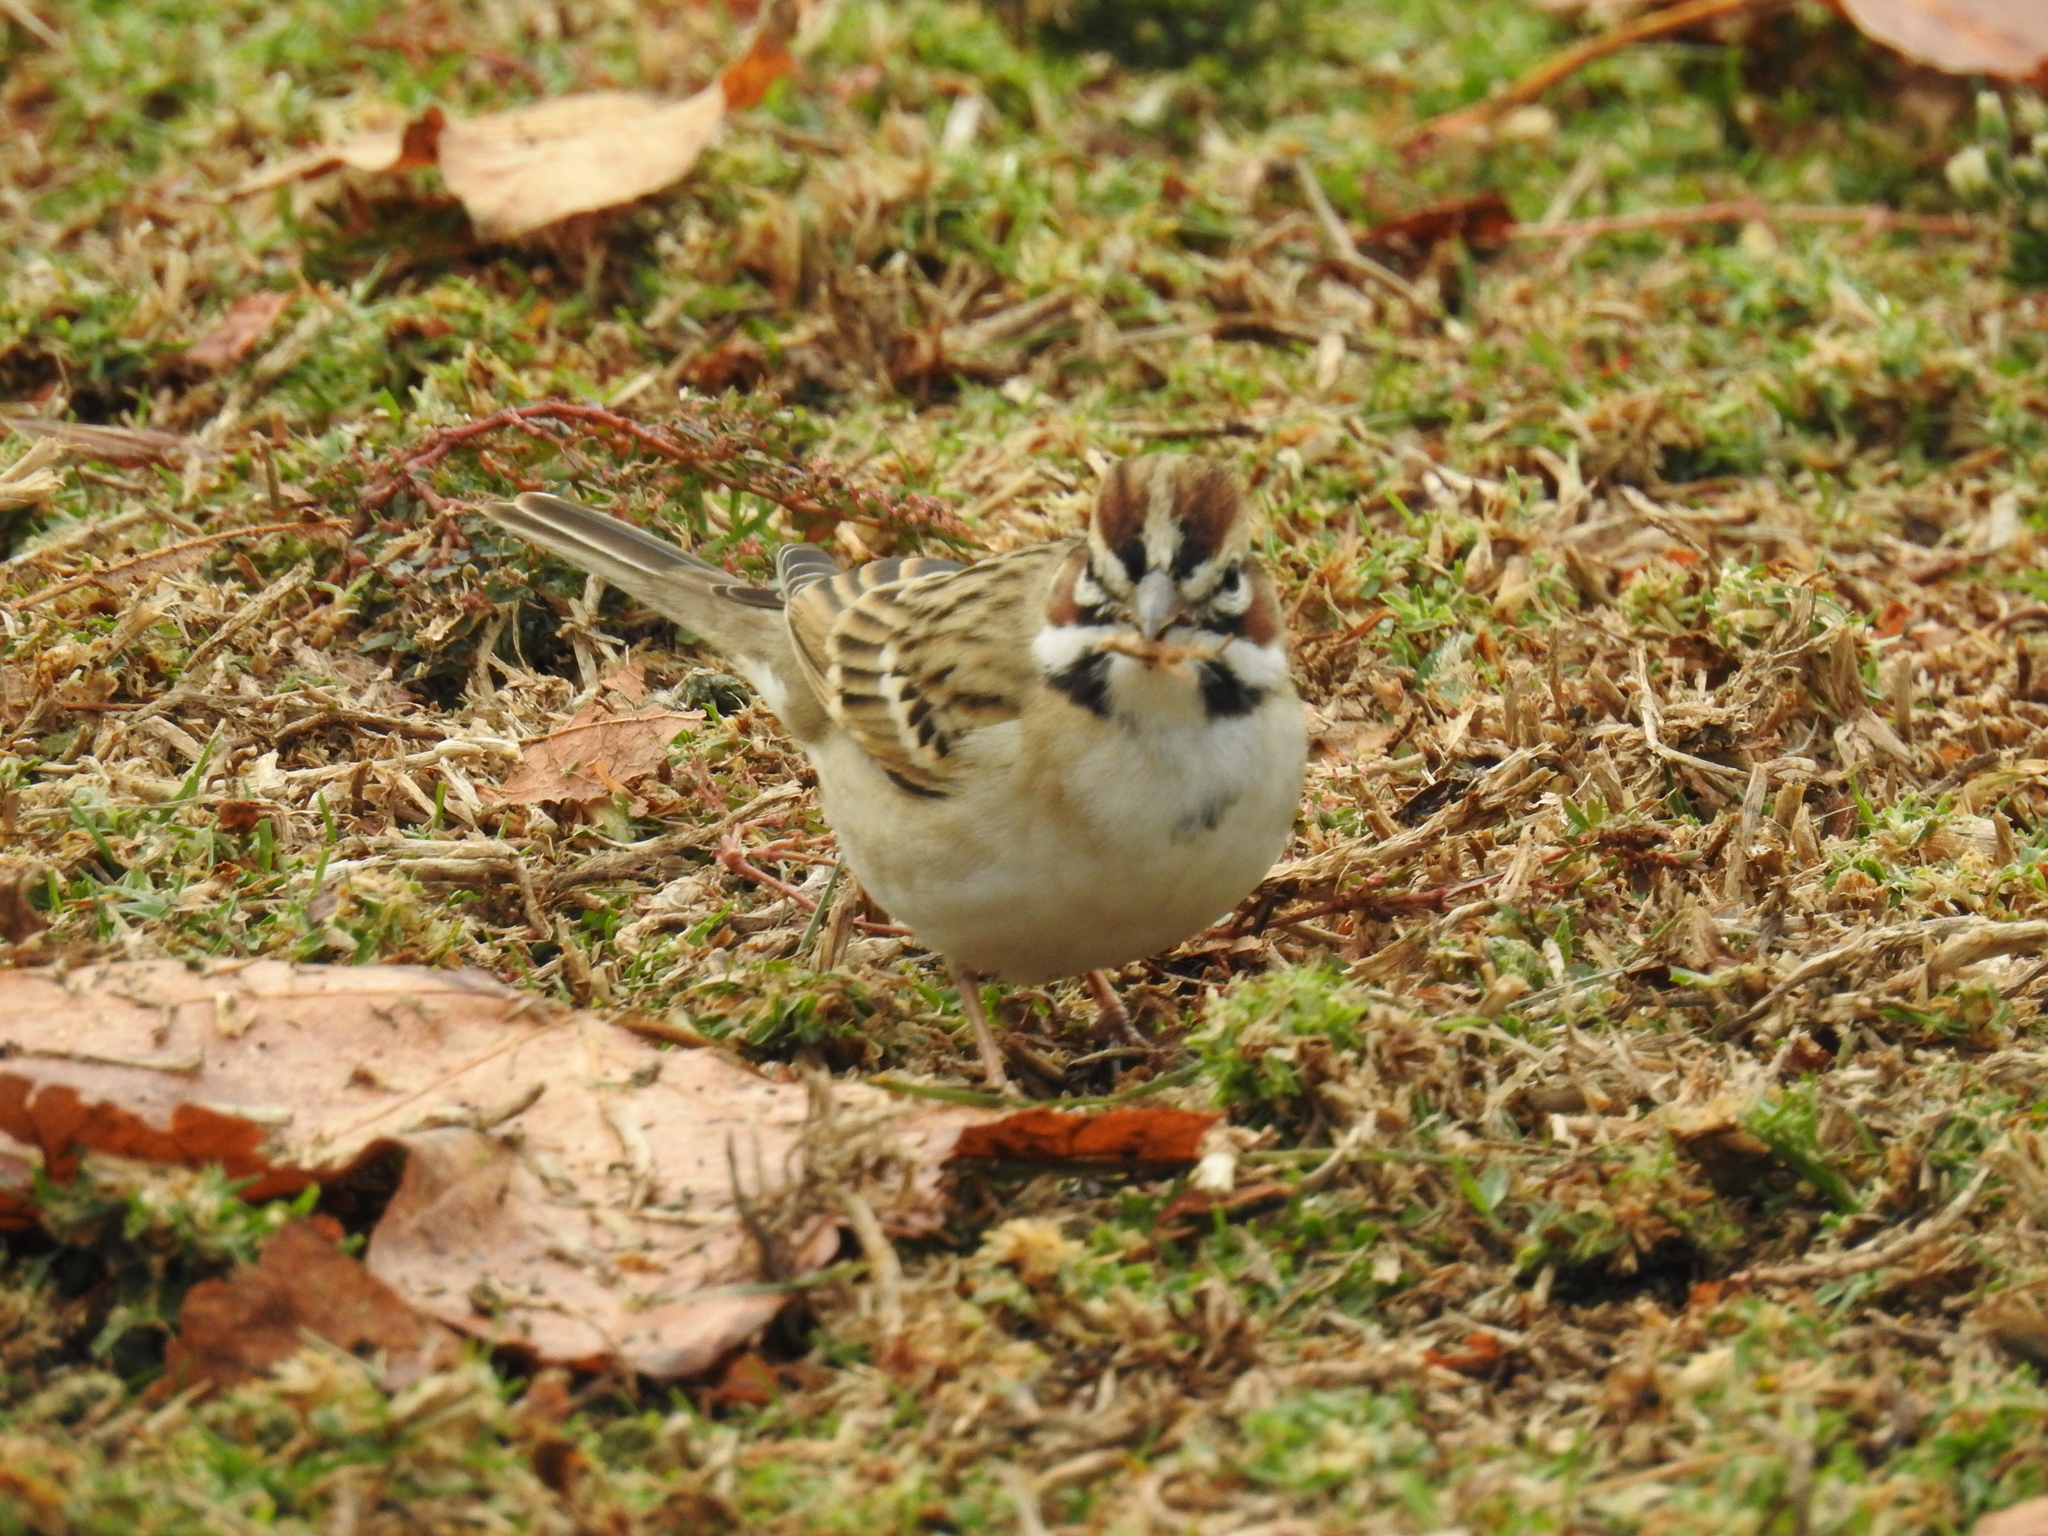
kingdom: Animalia
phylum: Chordata
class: Aves
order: Passeriformes
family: Passerellidae
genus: Chondestes
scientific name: Chondestes grammacus
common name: Lark sparrow
